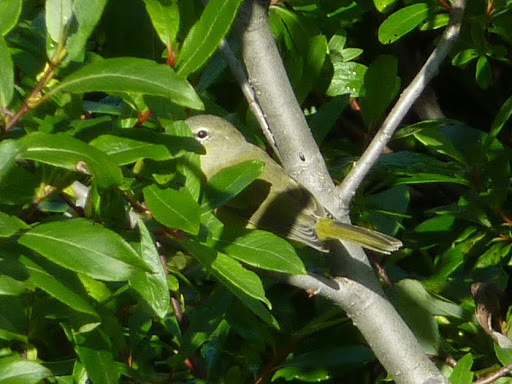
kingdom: Animalia
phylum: Chordata
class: Aves
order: Passeriformes
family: Parulidae
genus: Leiothlypis
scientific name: Leiothlypis celata
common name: Orange-crowned warbler
